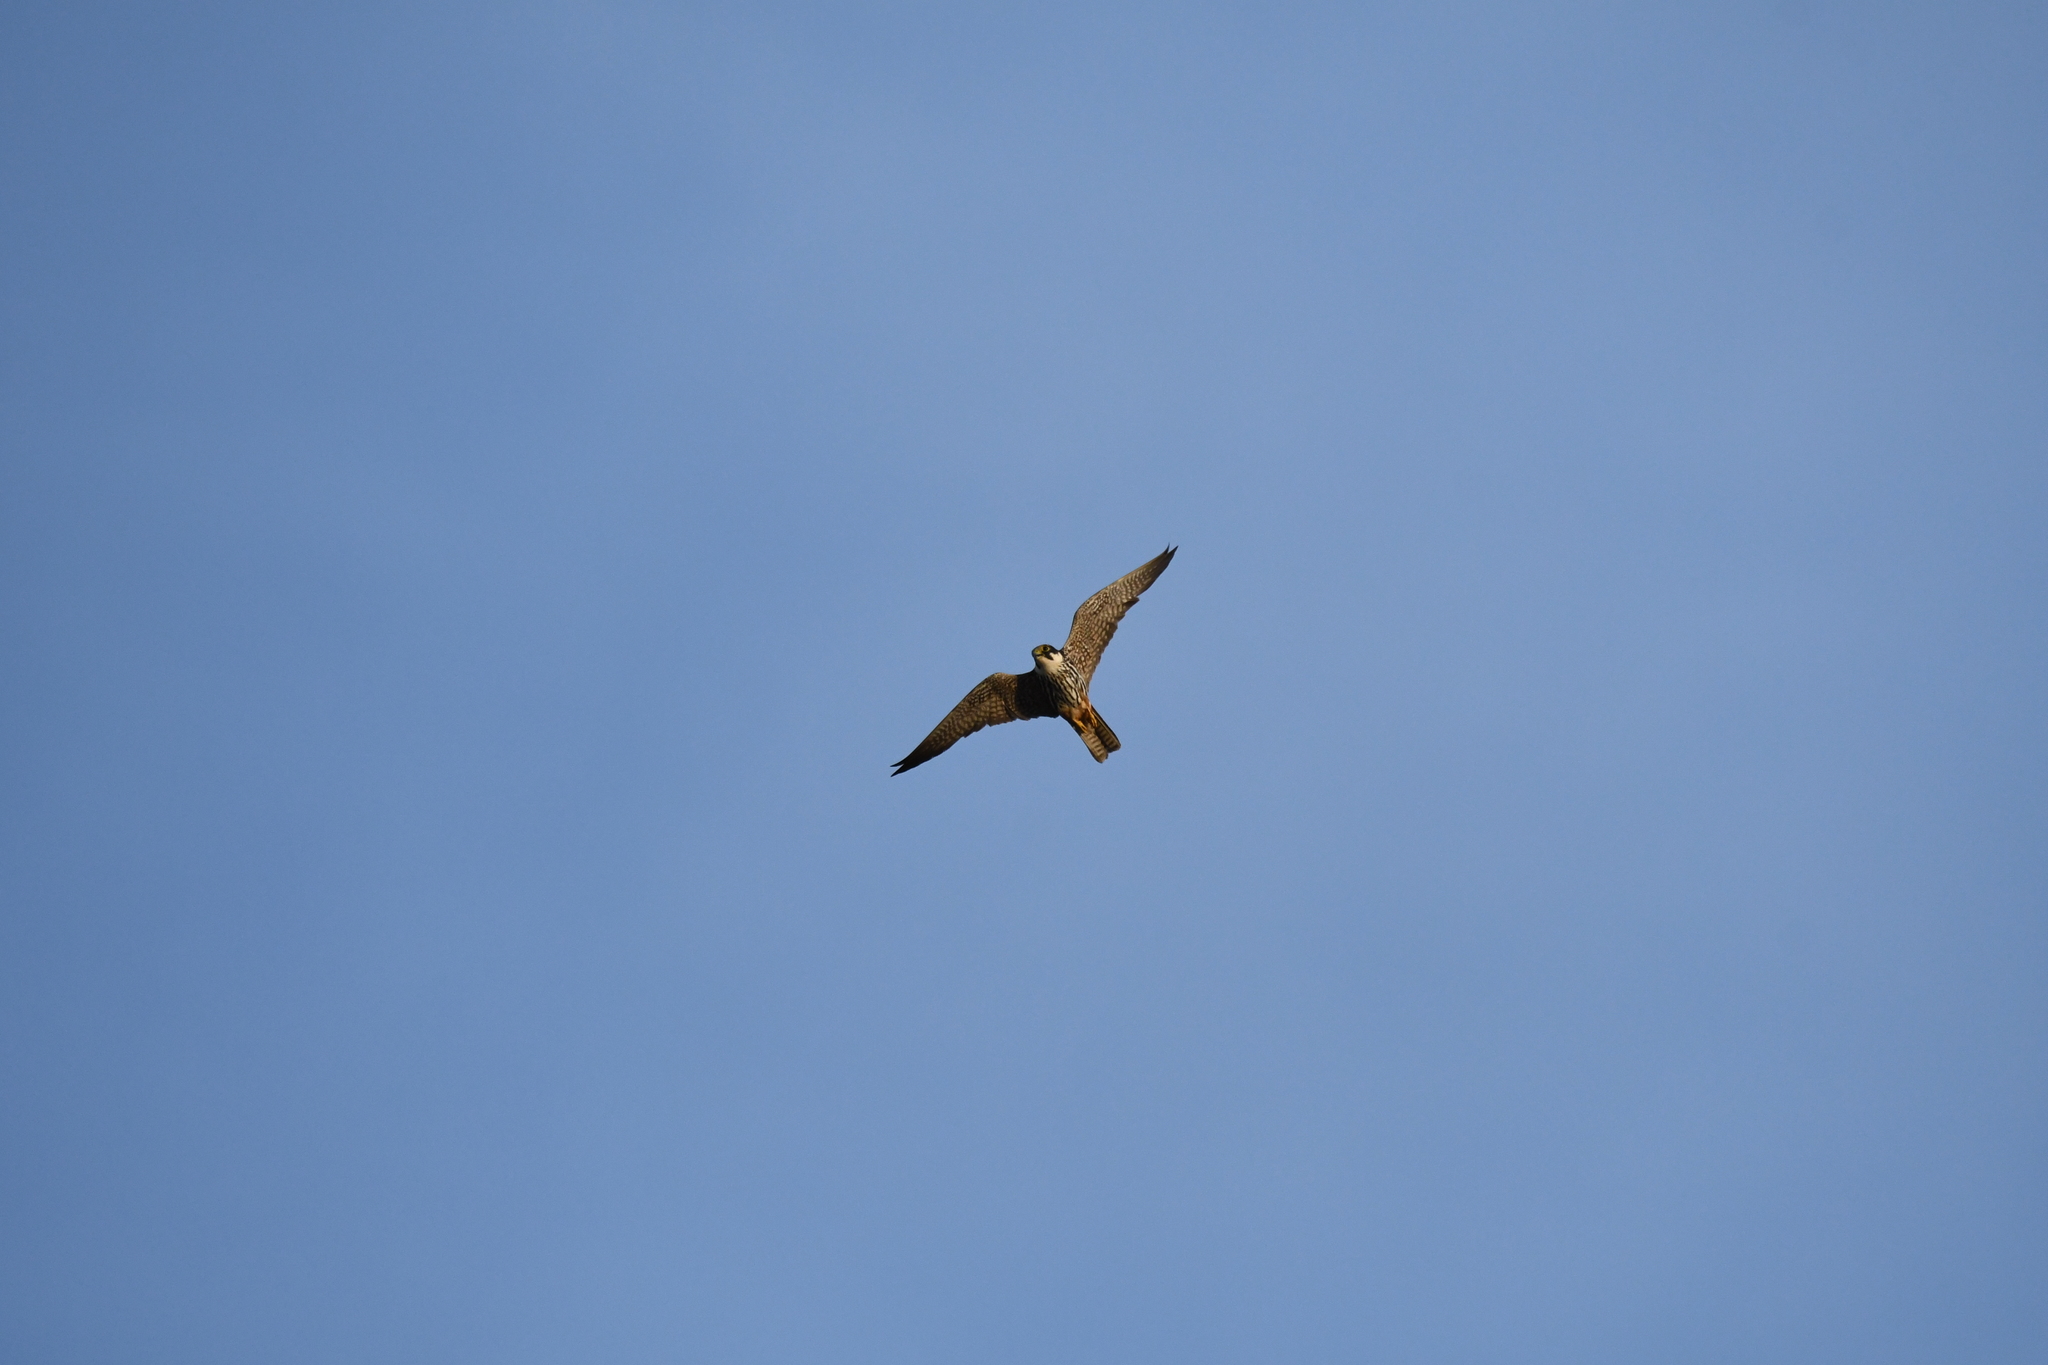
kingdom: Animalia
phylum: Chordata
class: Aves
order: Falconiformes
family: Falconidae
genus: Falco
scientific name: Falco subbuteo
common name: Eurasian hobby
